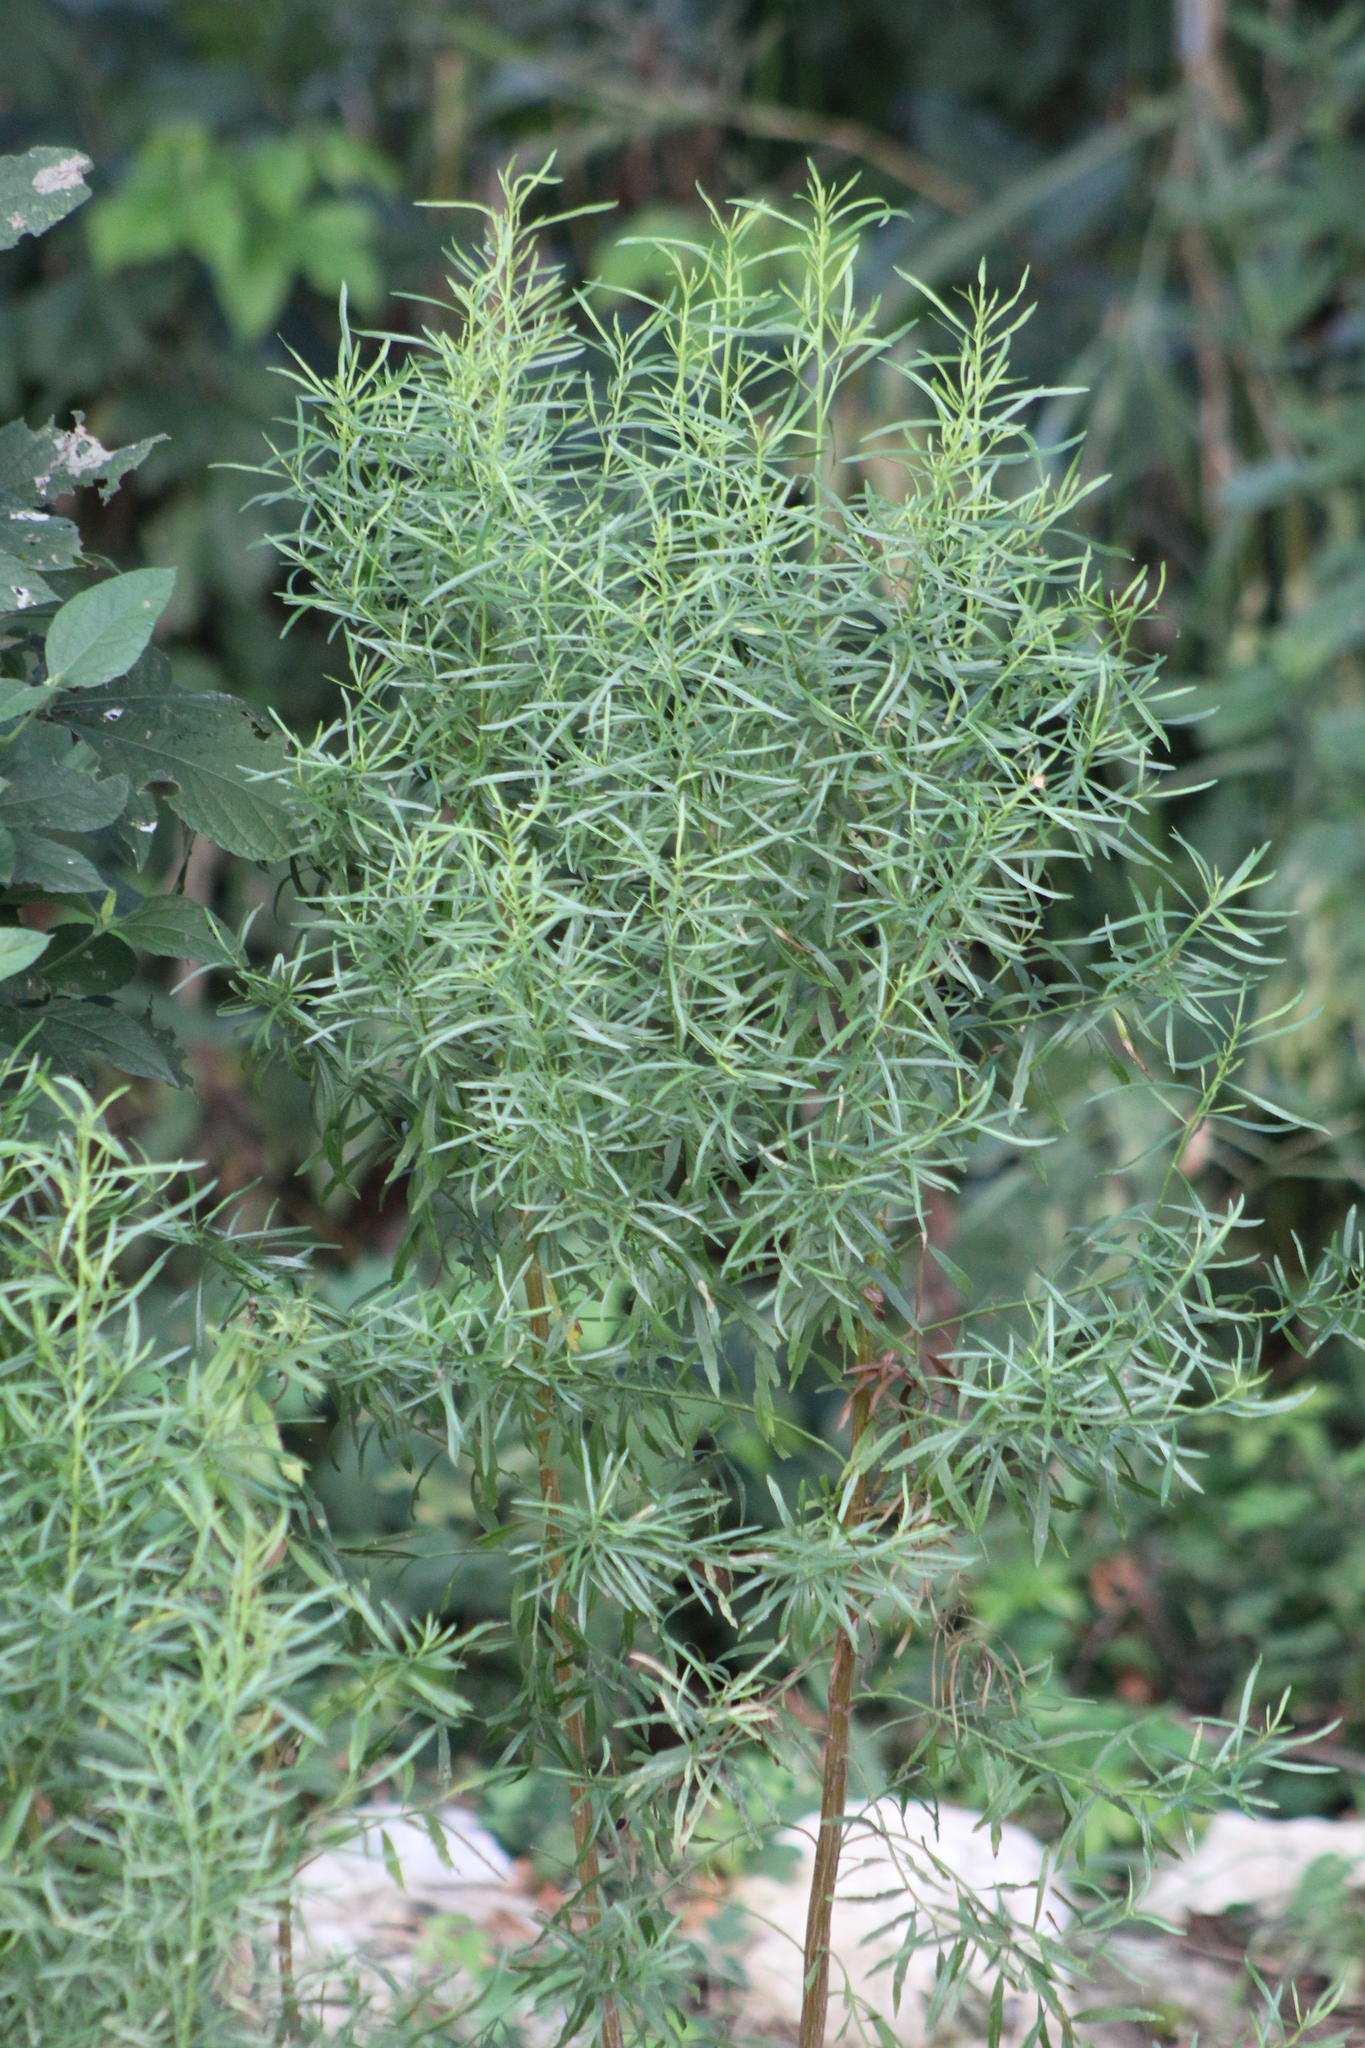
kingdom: Plantae
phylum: Tracheophyta
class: Magnoliopsida
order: Asterales
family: Asteraceae
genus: Baccharis
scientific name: Baccharis neglecta
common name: Roosevelt-weed
